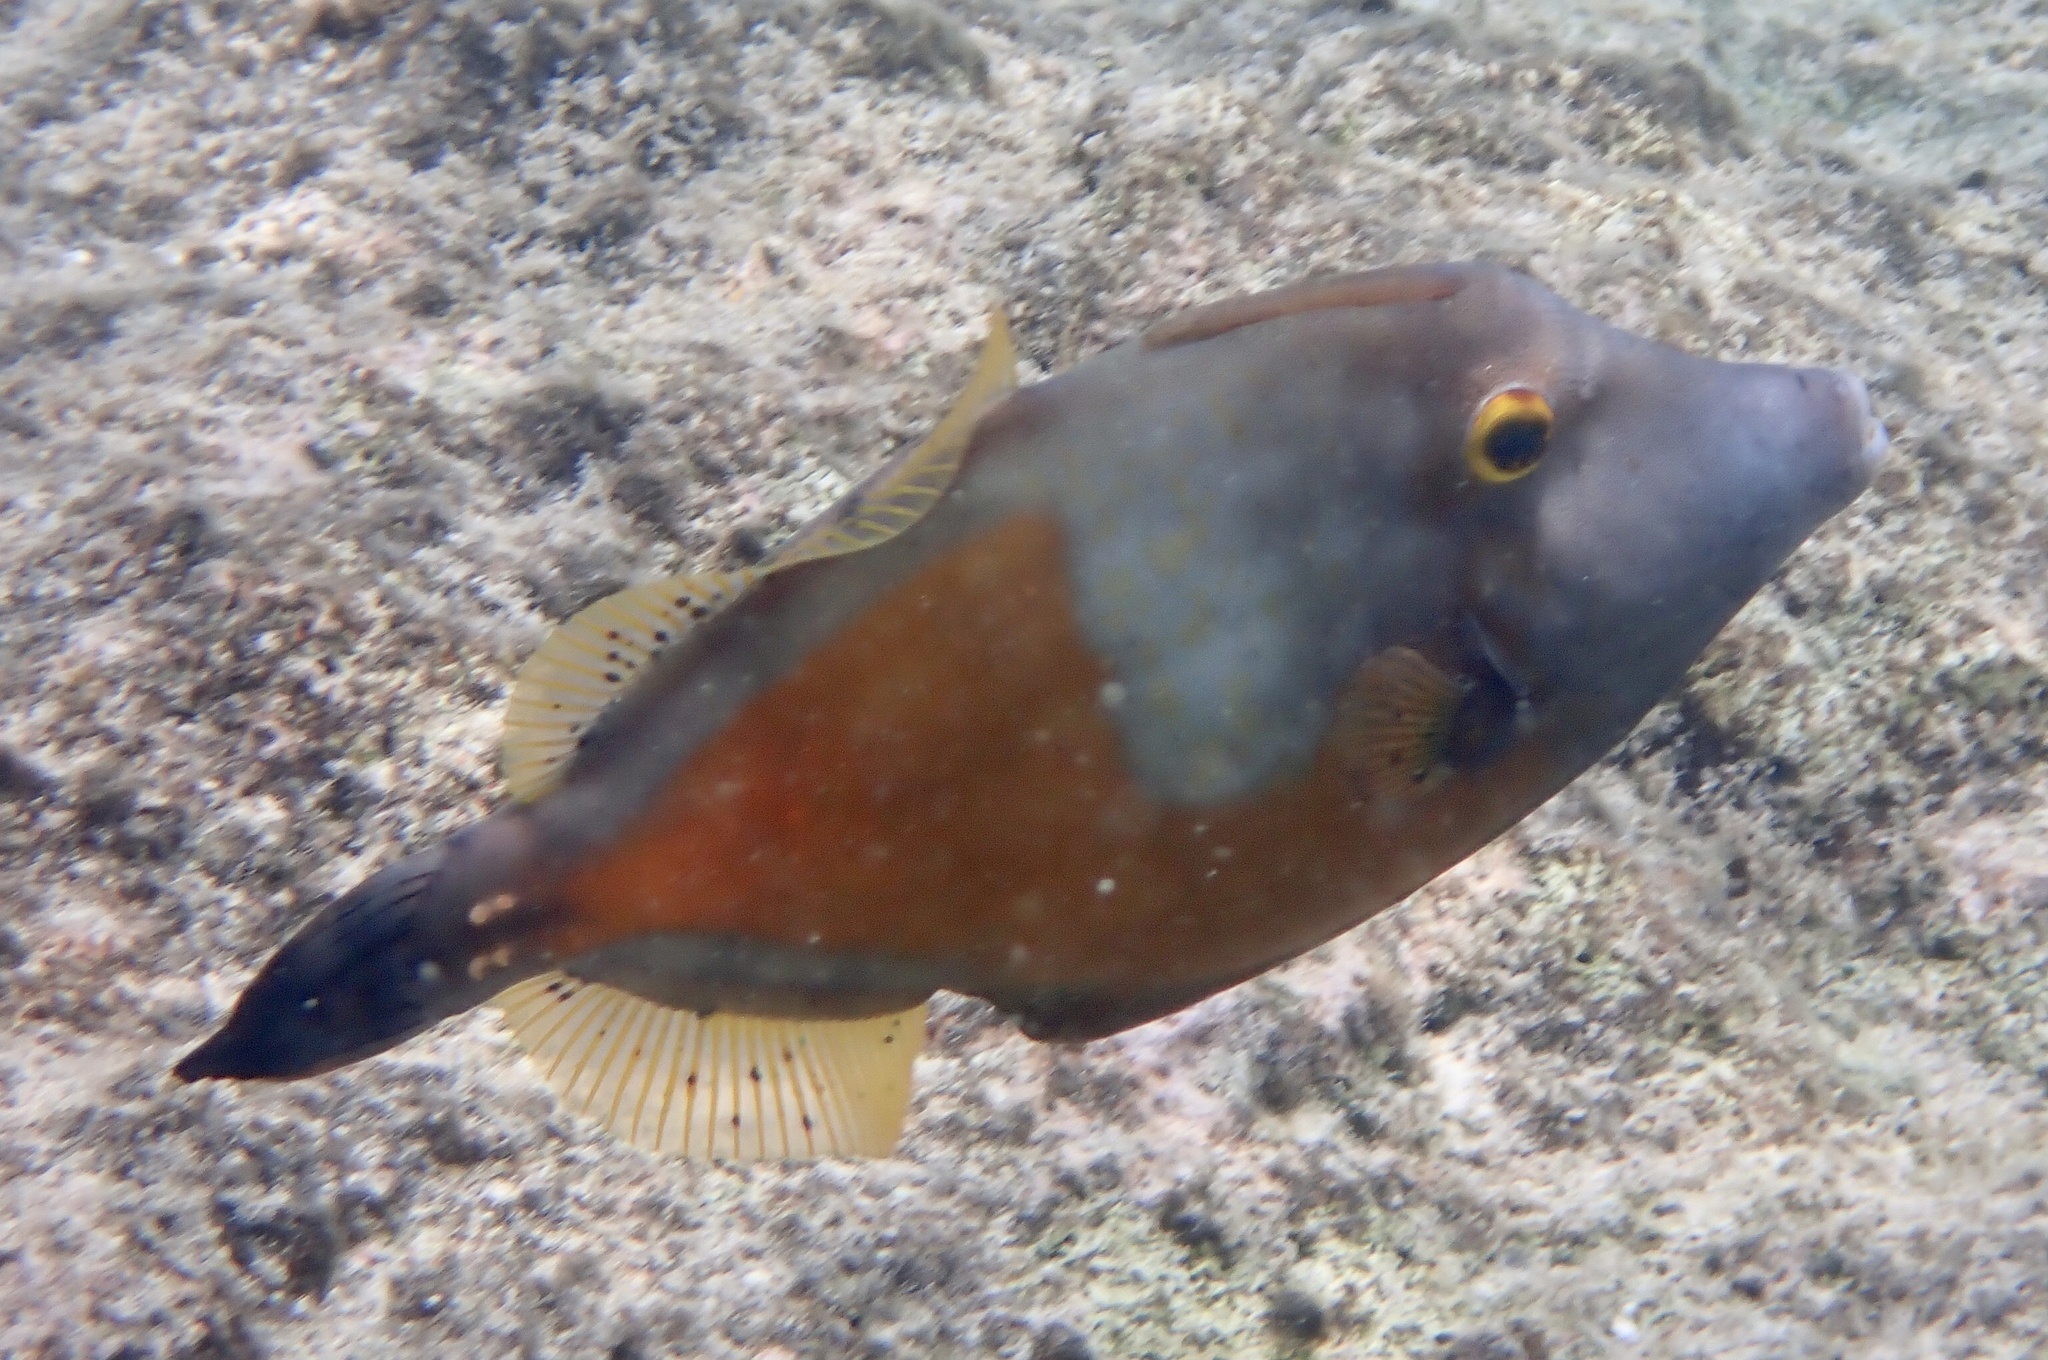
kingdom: Animalia
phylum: Chordata
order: Tetraodontiformes
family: Monacanthidae
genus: Cantherhines
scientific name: Cantherhines macrocerus
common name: Whitespotted filefish
